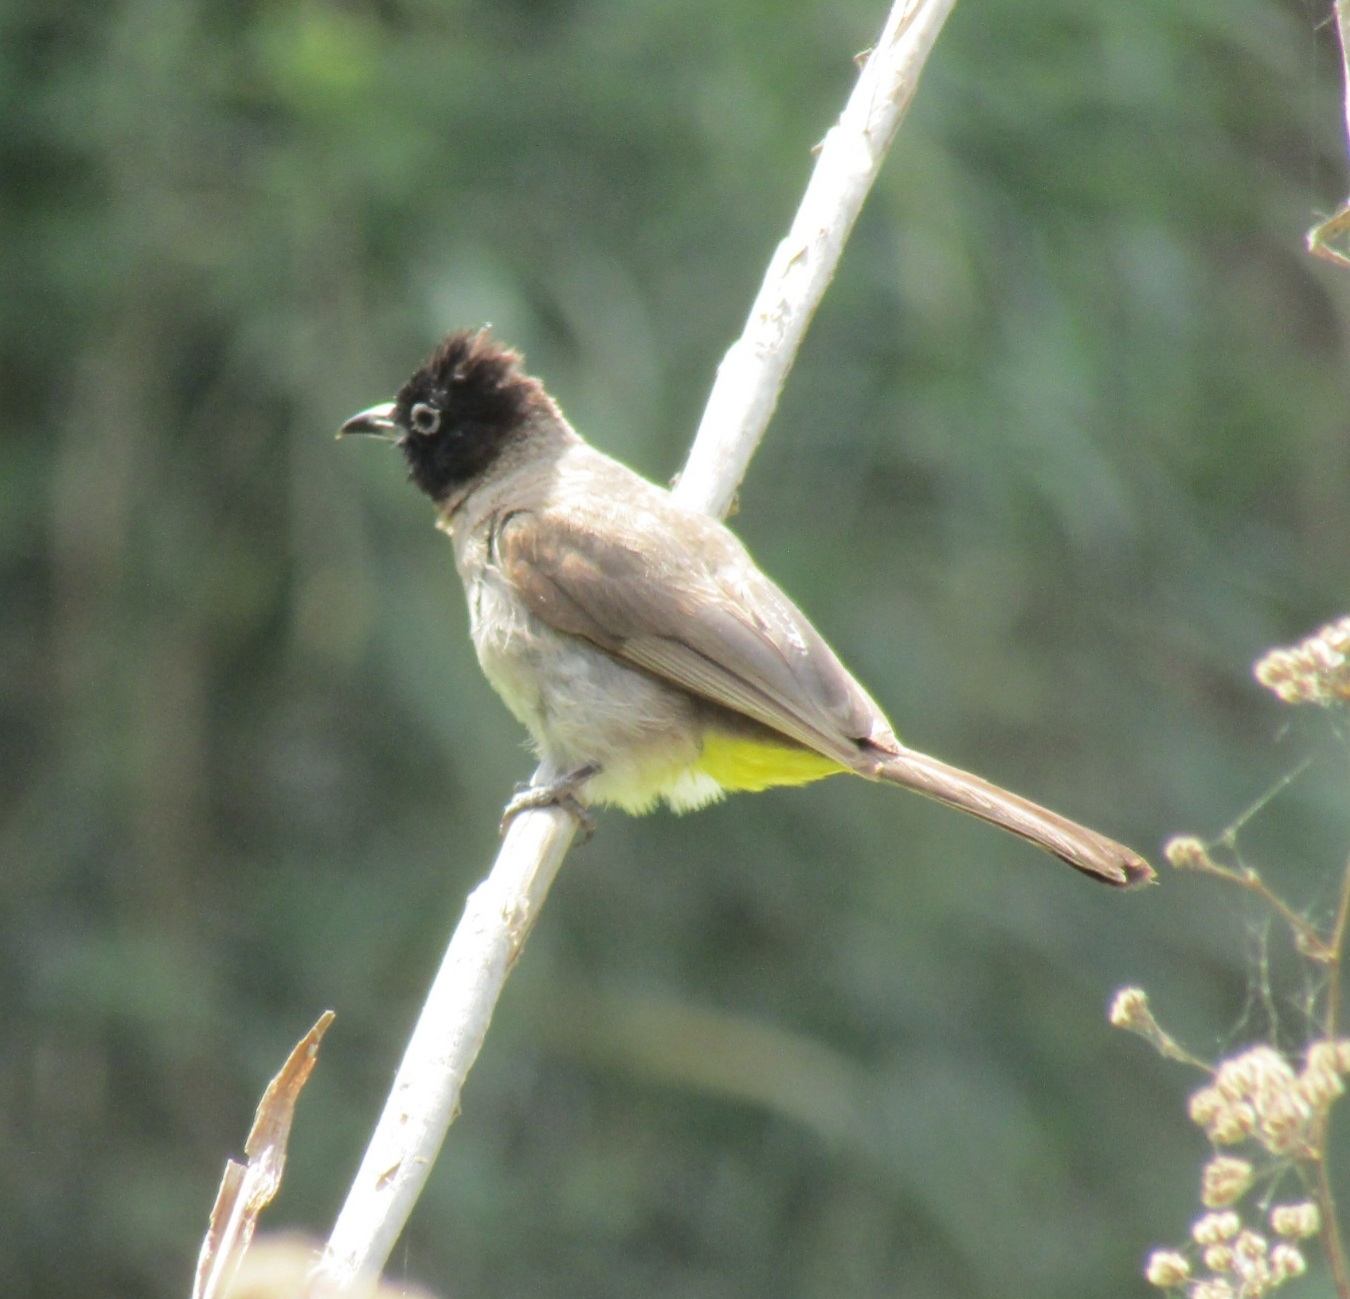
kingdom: Animalia
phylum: Chordata
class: Aves
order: Passeriformes
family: Pycnonotidae
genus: Pycnonotus
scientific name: Pycnonotus xanthopygos
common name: White-spectacled bulbul
